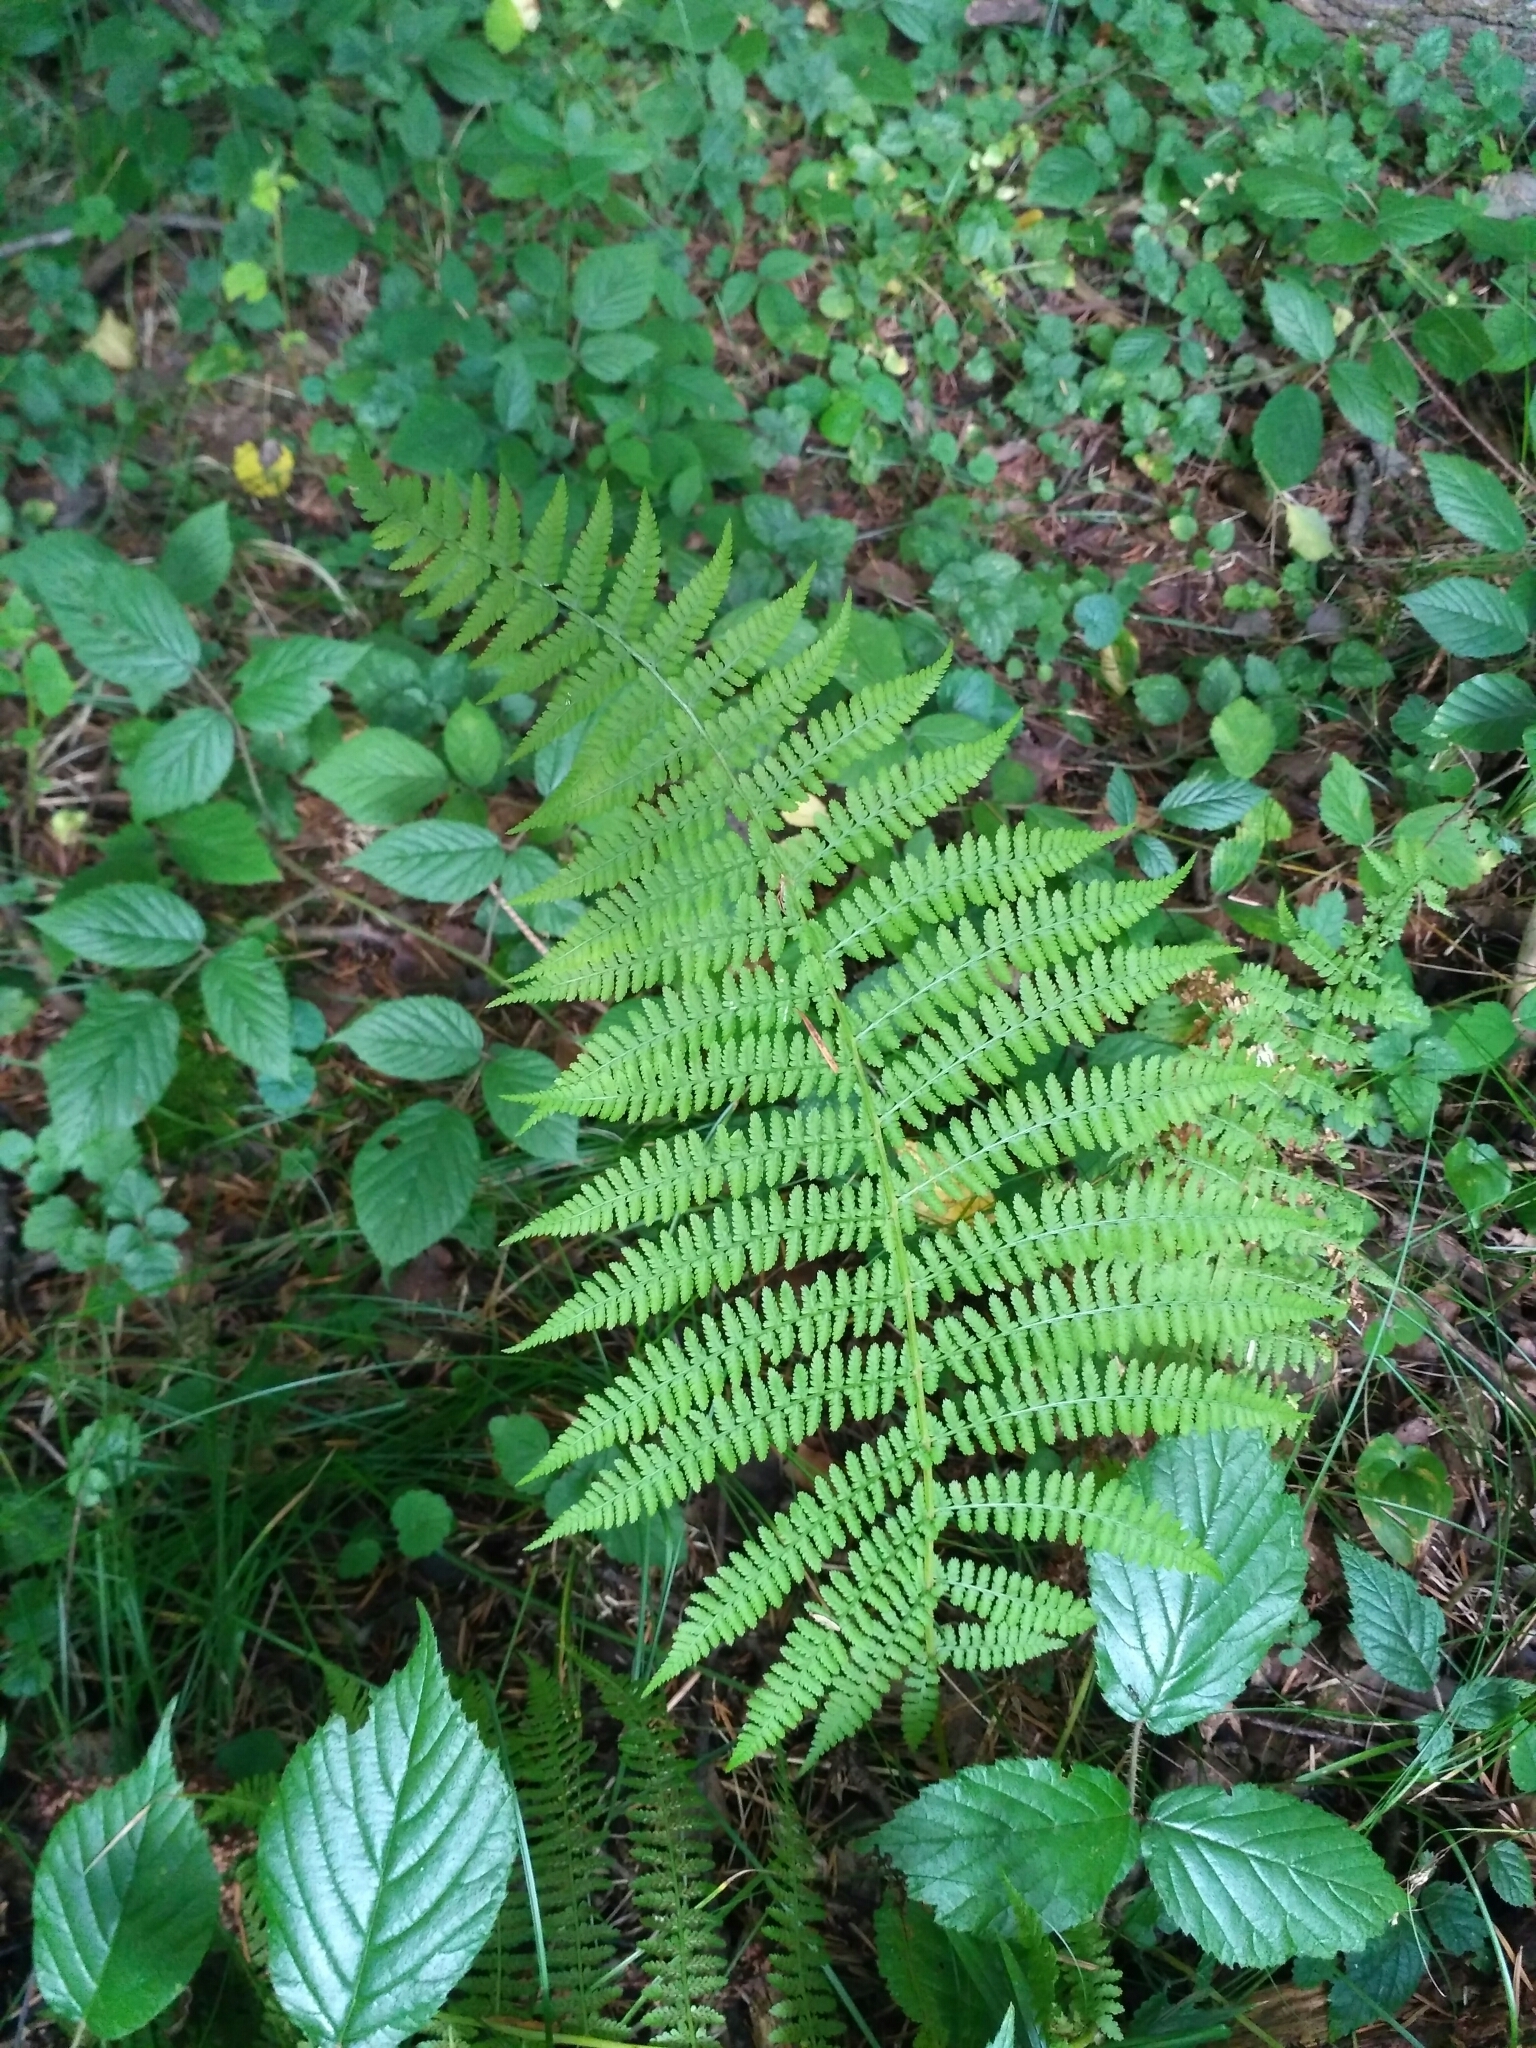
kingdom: Plantae
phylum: Tracheophyta
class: Polypodiopsida
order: Polypodiales
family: Athyriaceae
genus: Athyrium
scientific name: Athyrium filix-femina
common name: Lady fern
